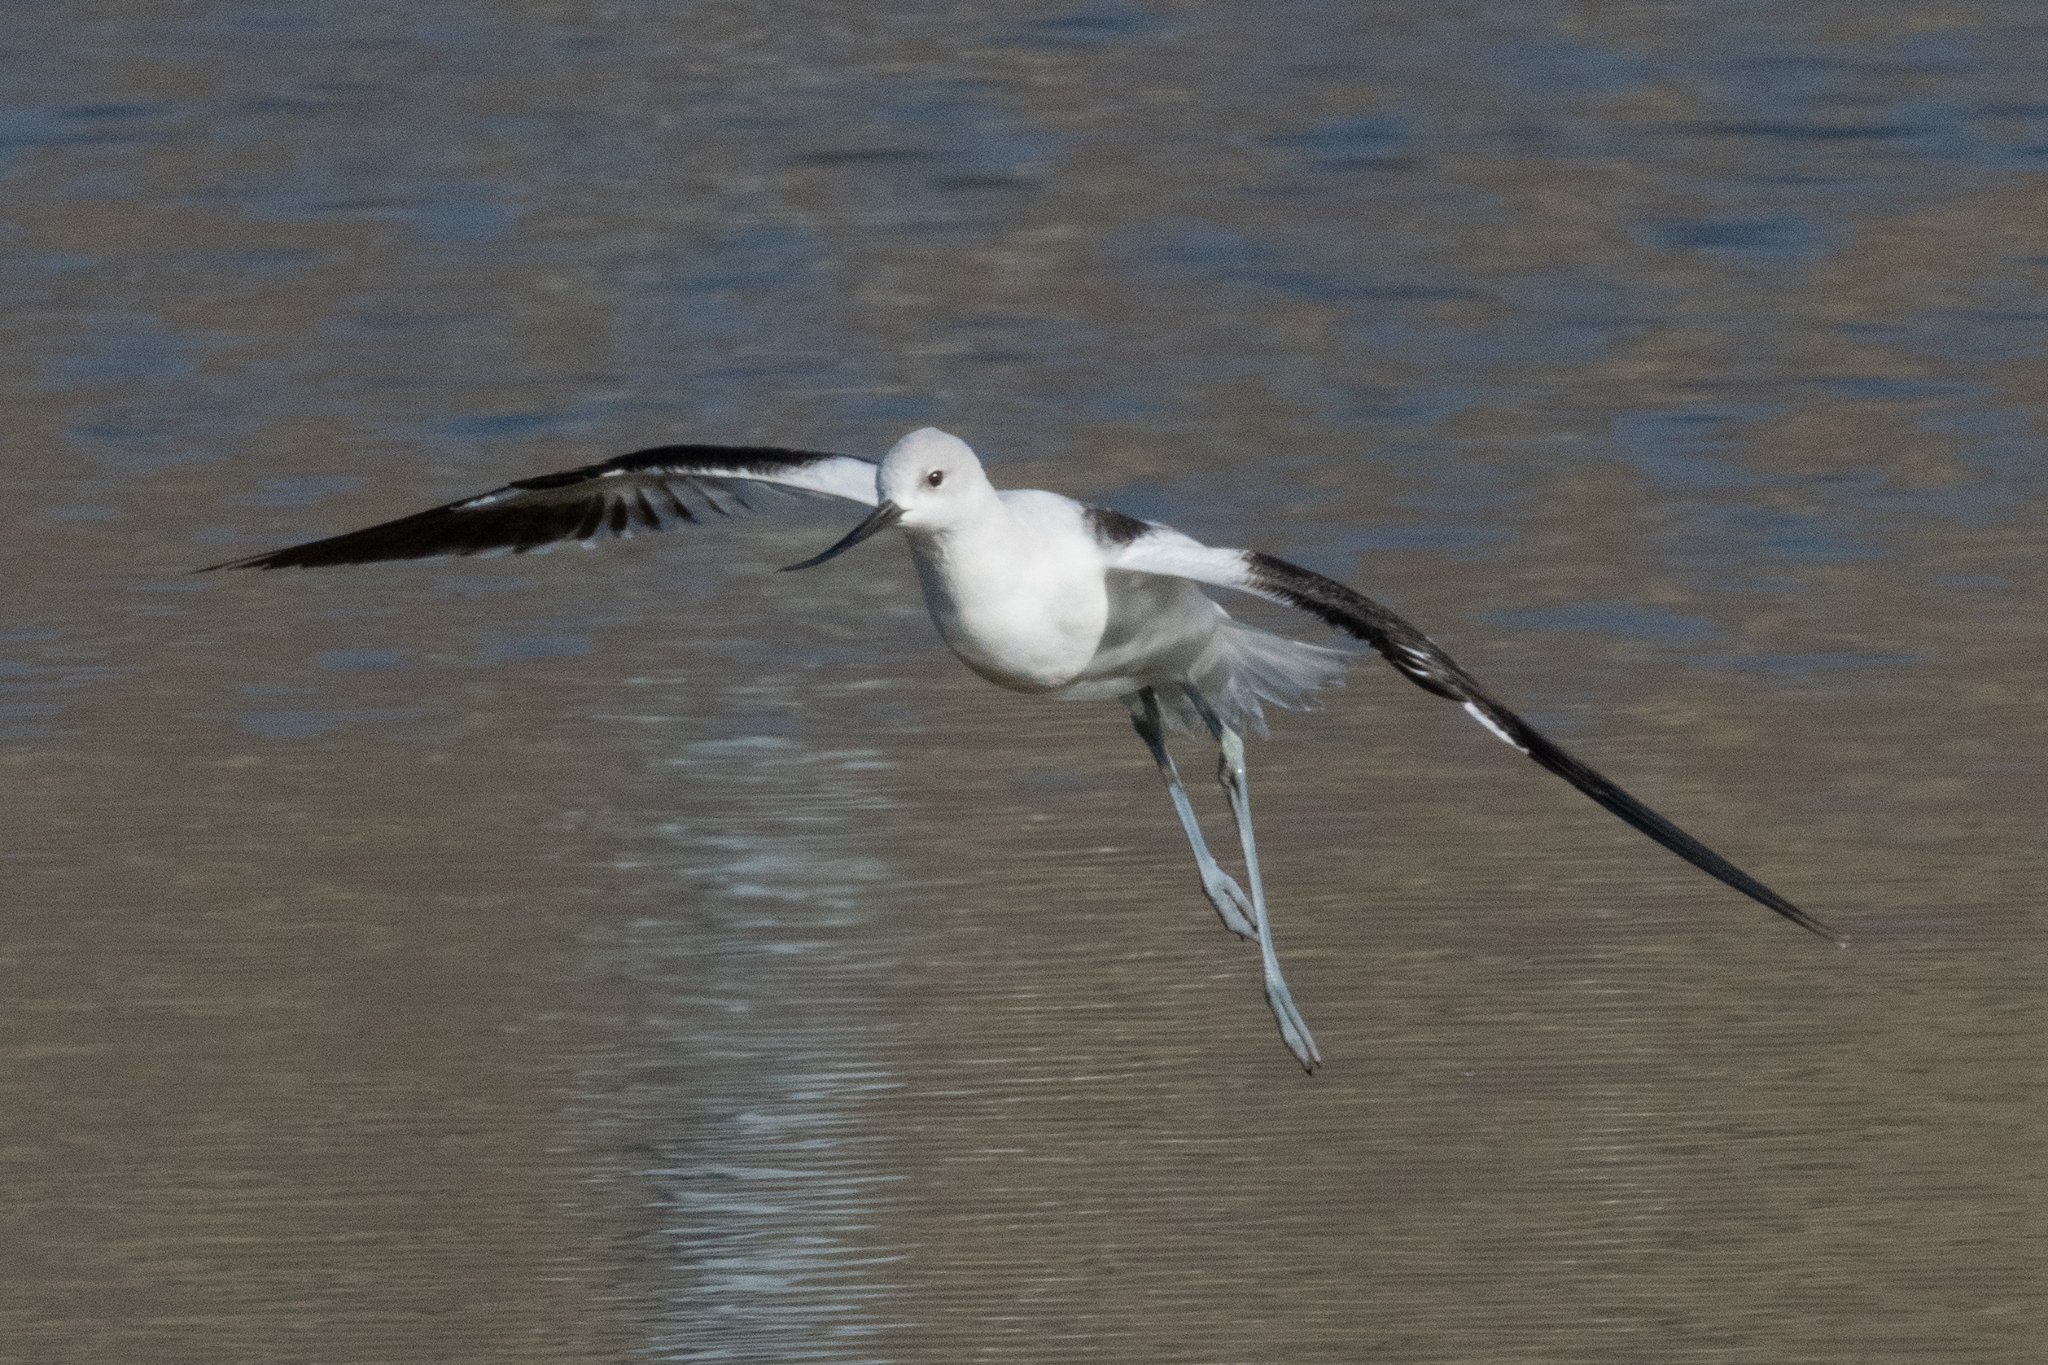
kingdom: Animalia
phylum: Chordata
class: Aves
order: Charadriiformes
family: Recurvirostridae
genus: Recurvirostra
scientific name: Recurvirostra americana
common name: American avocet
